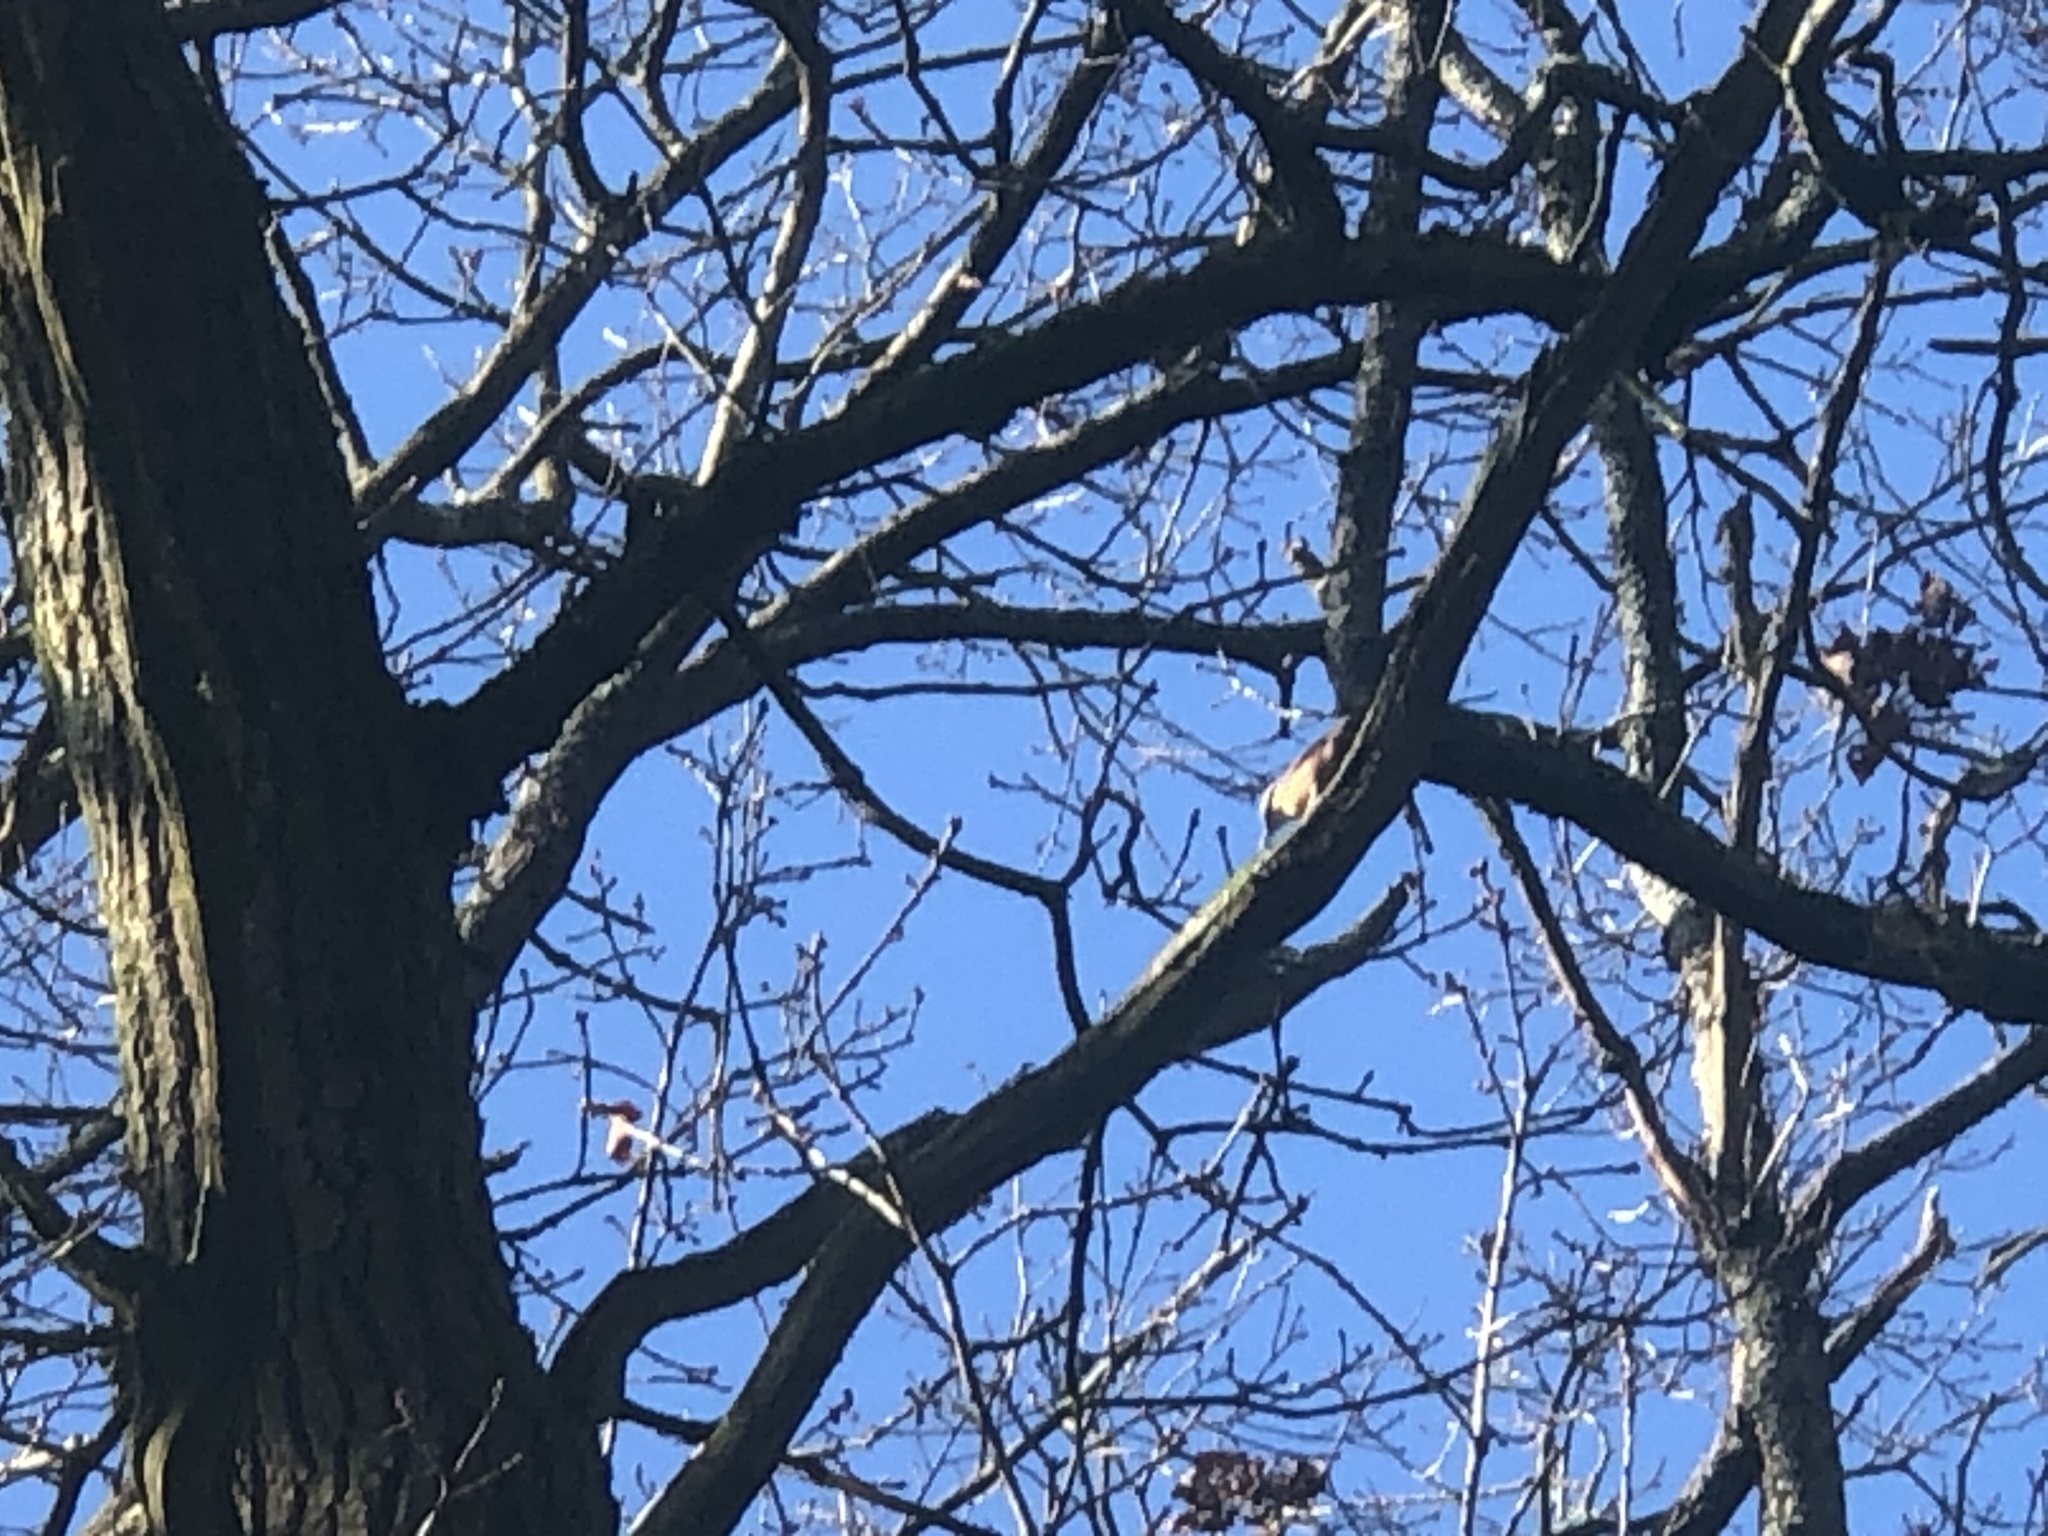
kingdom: Animalia
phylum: Chordata
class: Aves
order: Passeriformes
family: Sittidae
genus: Sitta
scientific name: Sitta europaea
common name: Eurasian nuthatch
